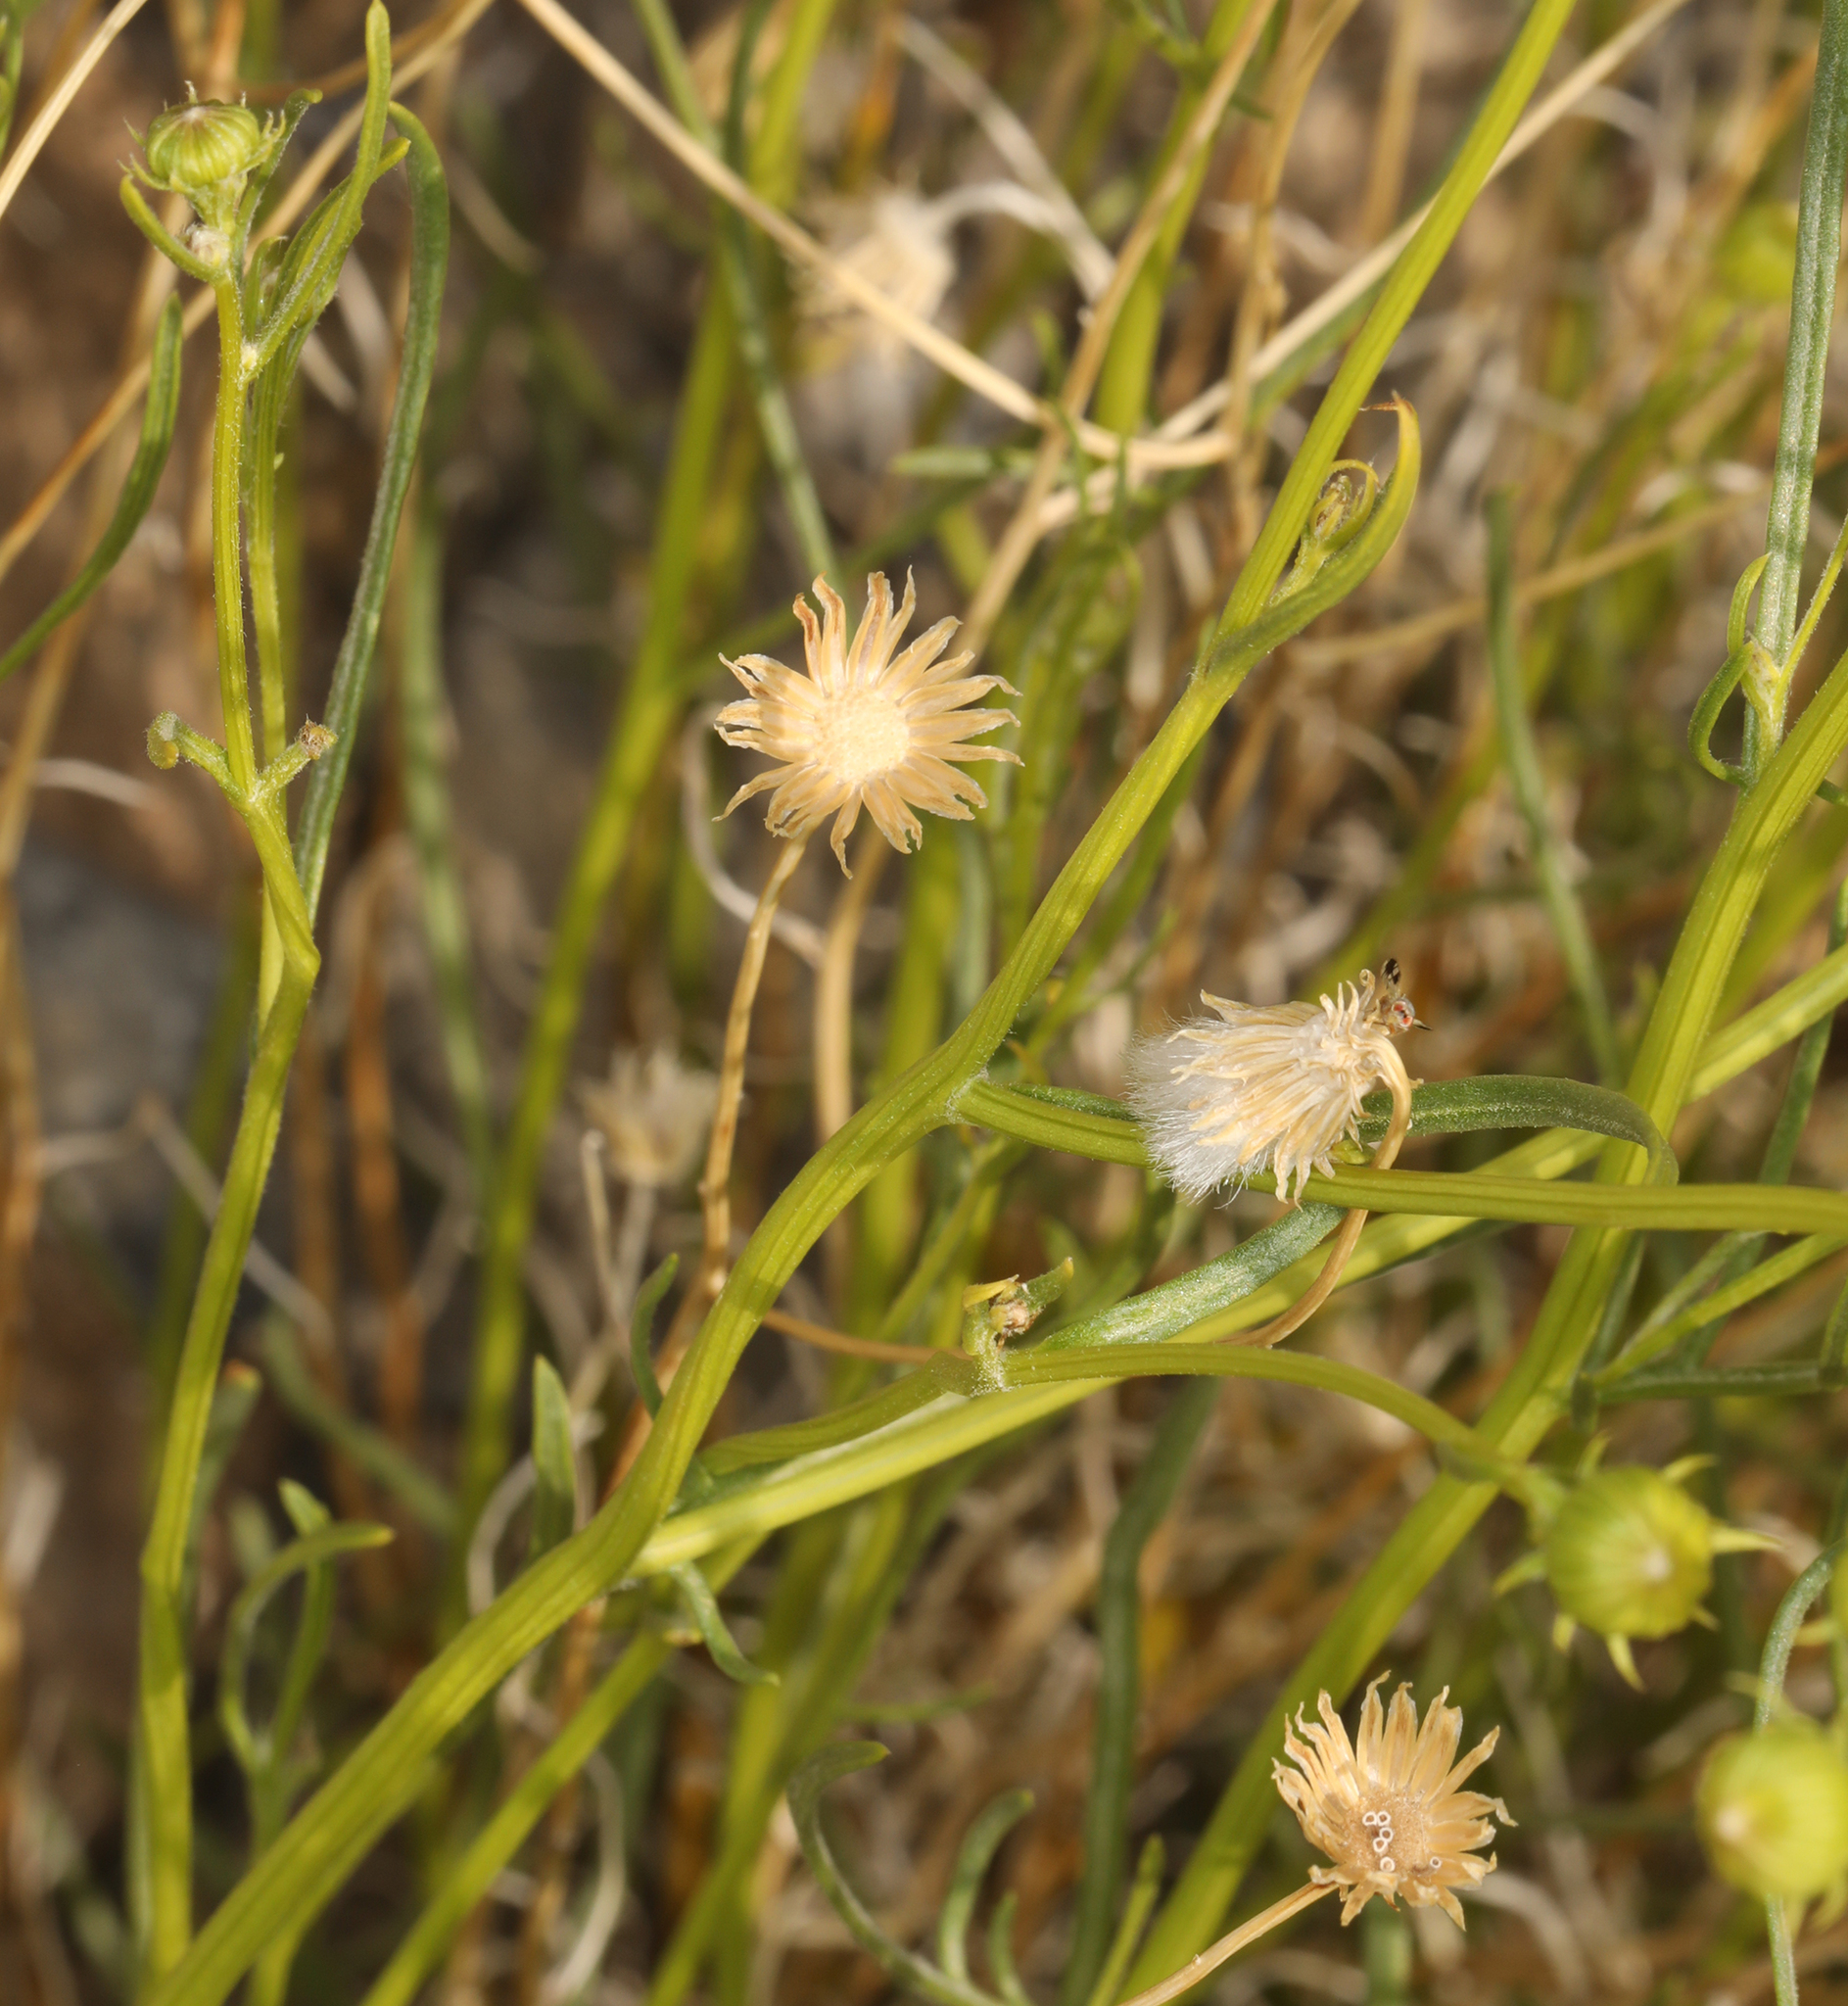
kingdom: Plantae
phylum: Tracheophyta
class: Magnoliopsida
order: Asterales
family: Asteraceae
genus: Senecio
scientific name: Senecio flaccidus
